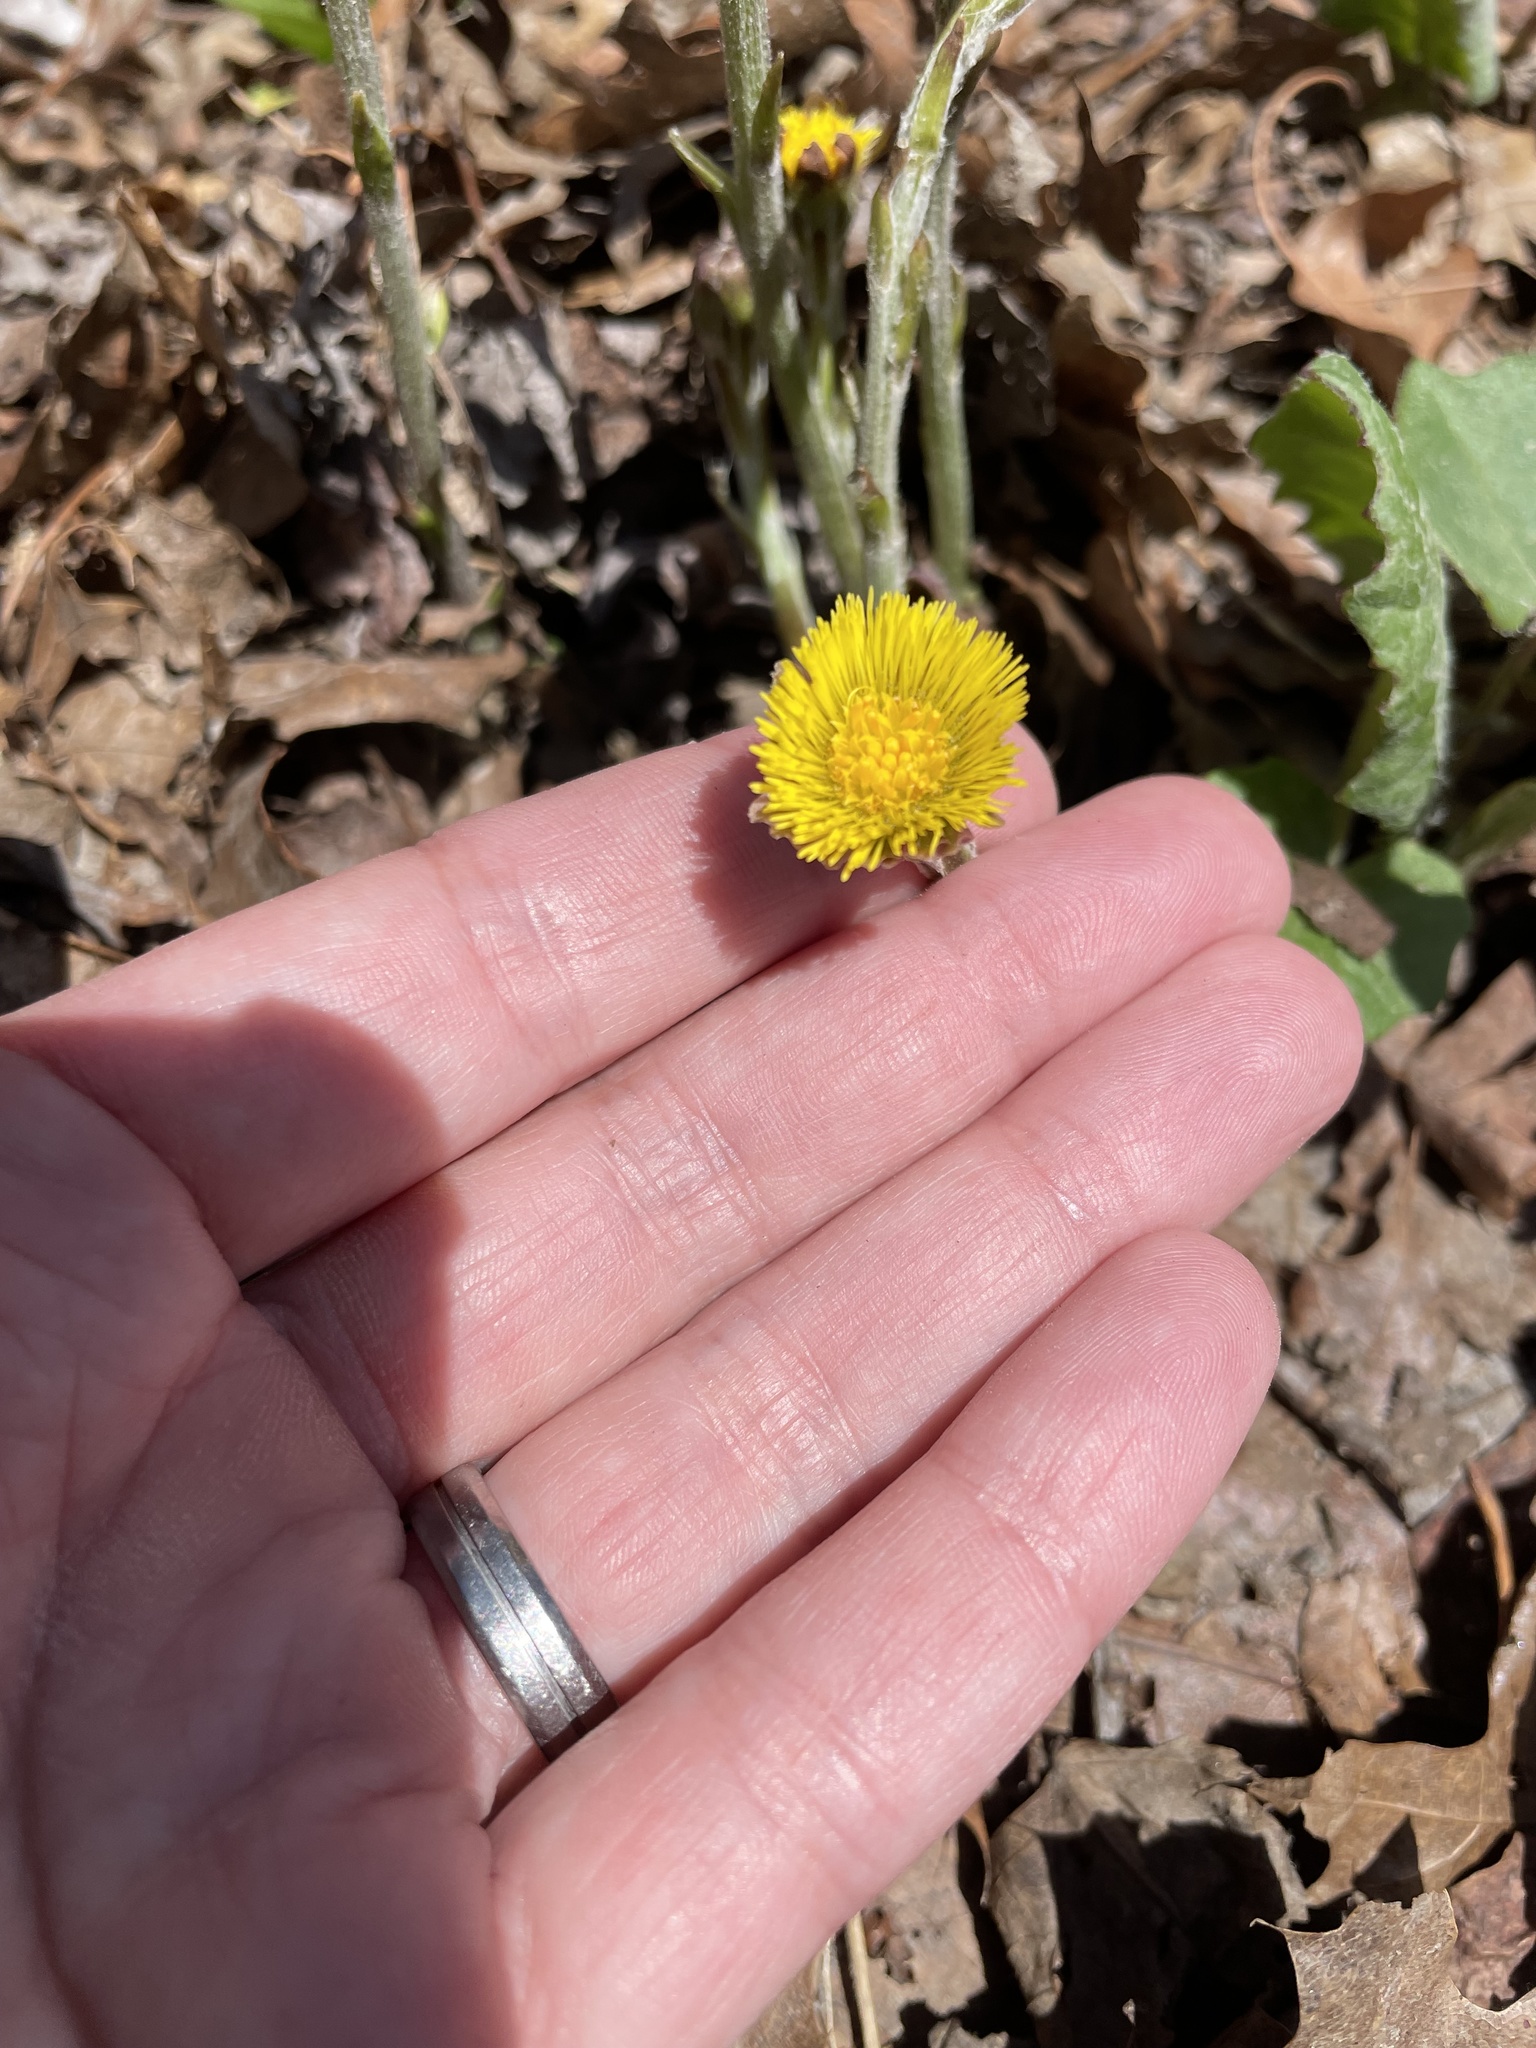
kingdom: Plantae
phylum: Tracheophyta
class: Magnoliopsida
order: Asterales
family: Asteraceae
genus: Tussilago
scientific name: Tussilago farfara
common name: Coltsfoot
